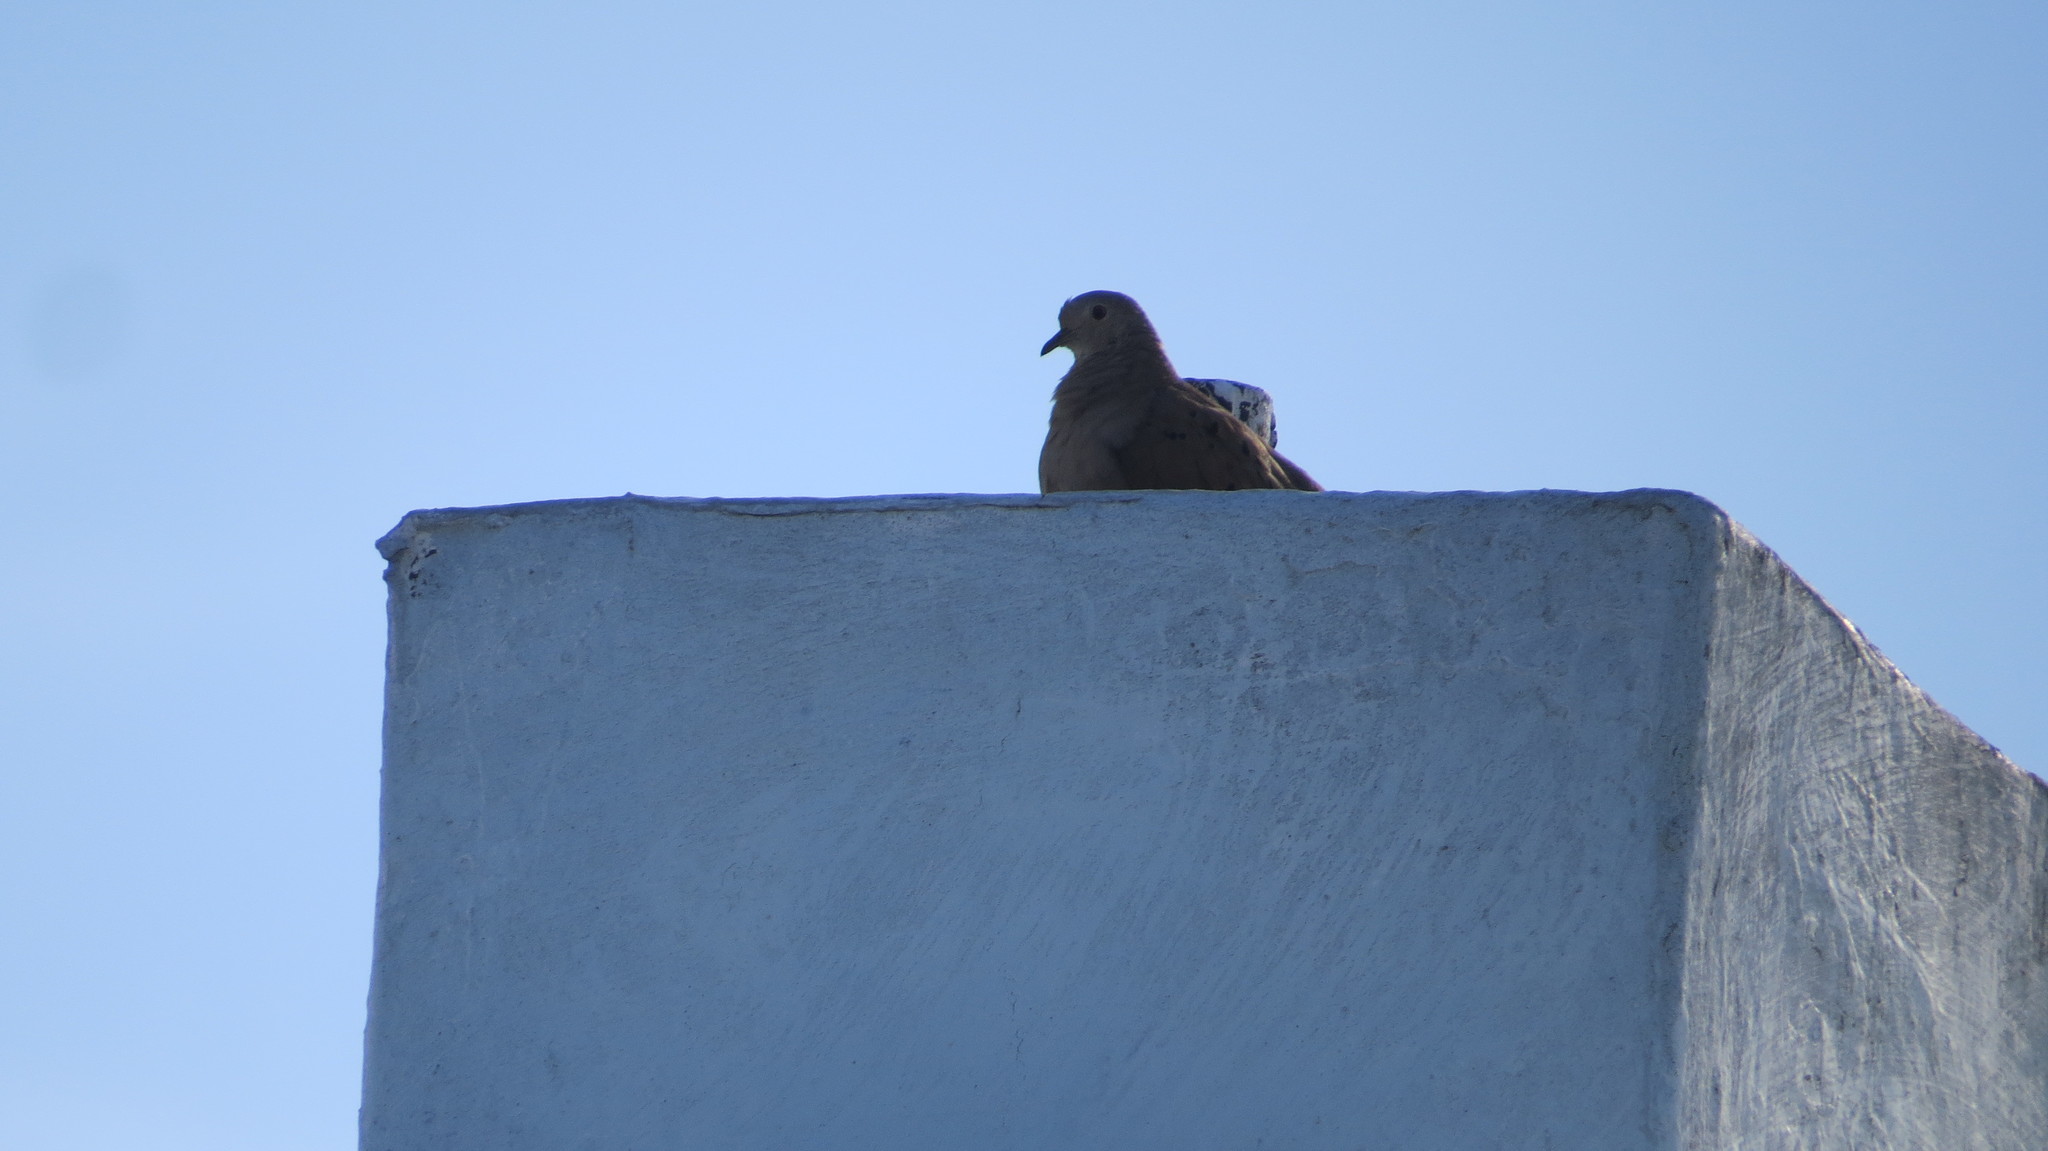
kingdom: Animalia
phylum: Chordata
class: Aves
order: Columbiformes
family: Columbidae
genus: Columbina
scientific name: Columbina talpacoti
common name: Ruddy ground dove
